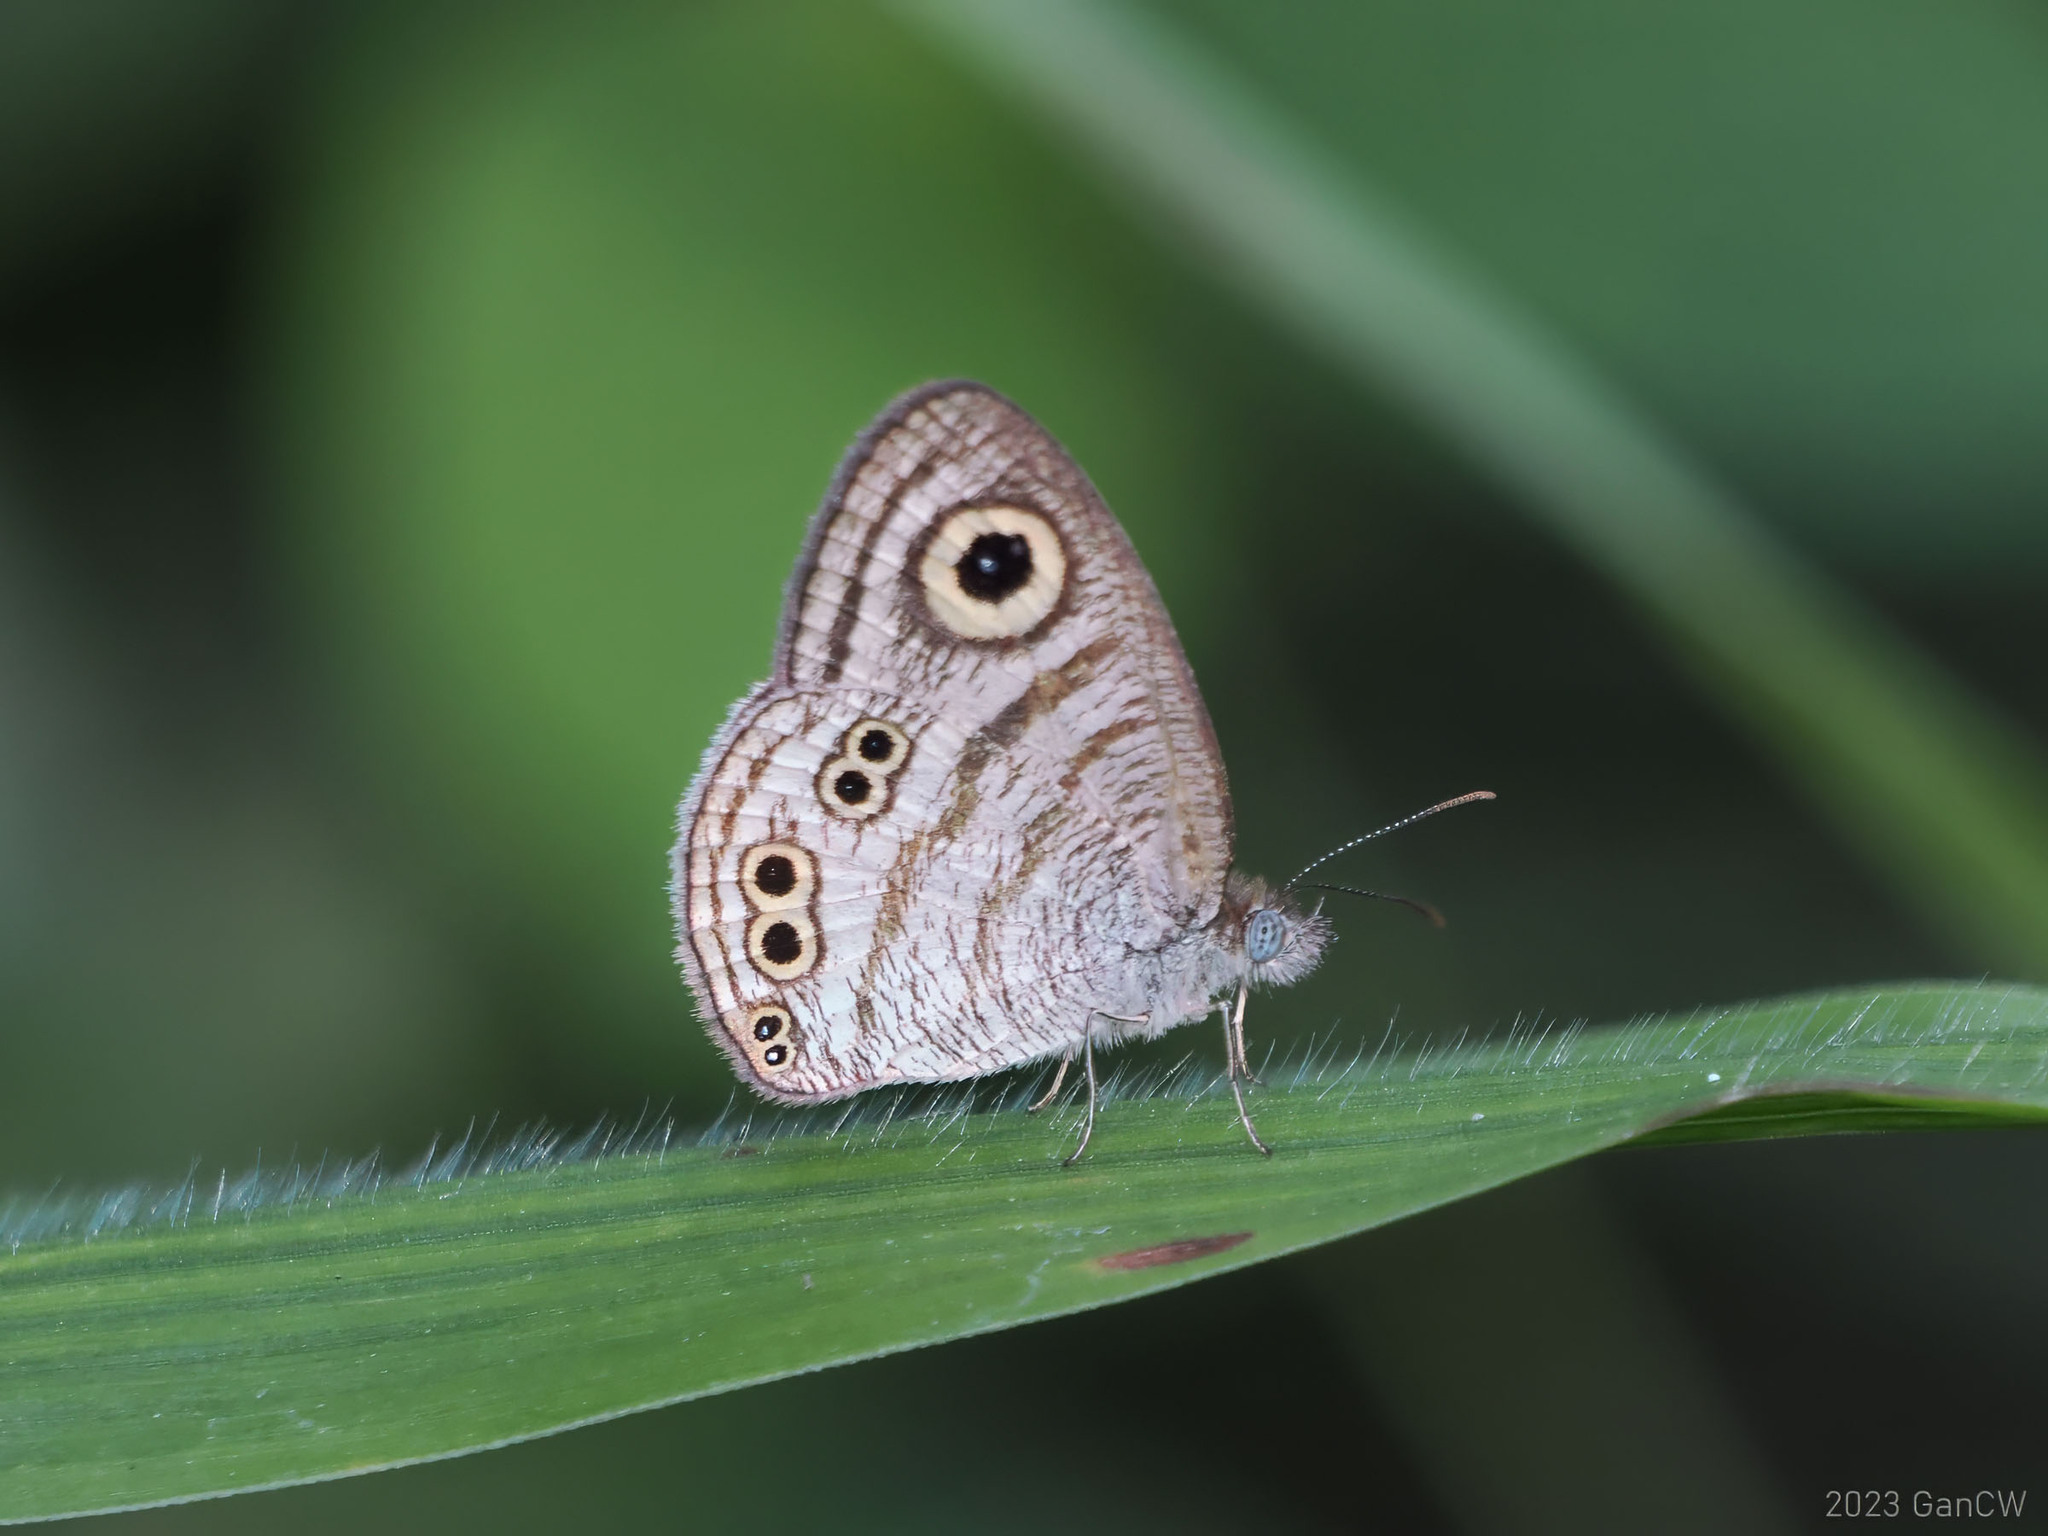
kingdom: Animalia
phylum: Arthropoda
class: Insecta
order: Lepidoptera
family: Nymphalidae
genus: Ypthima
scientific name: Ypthima stellera
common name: Philippine five-ring
